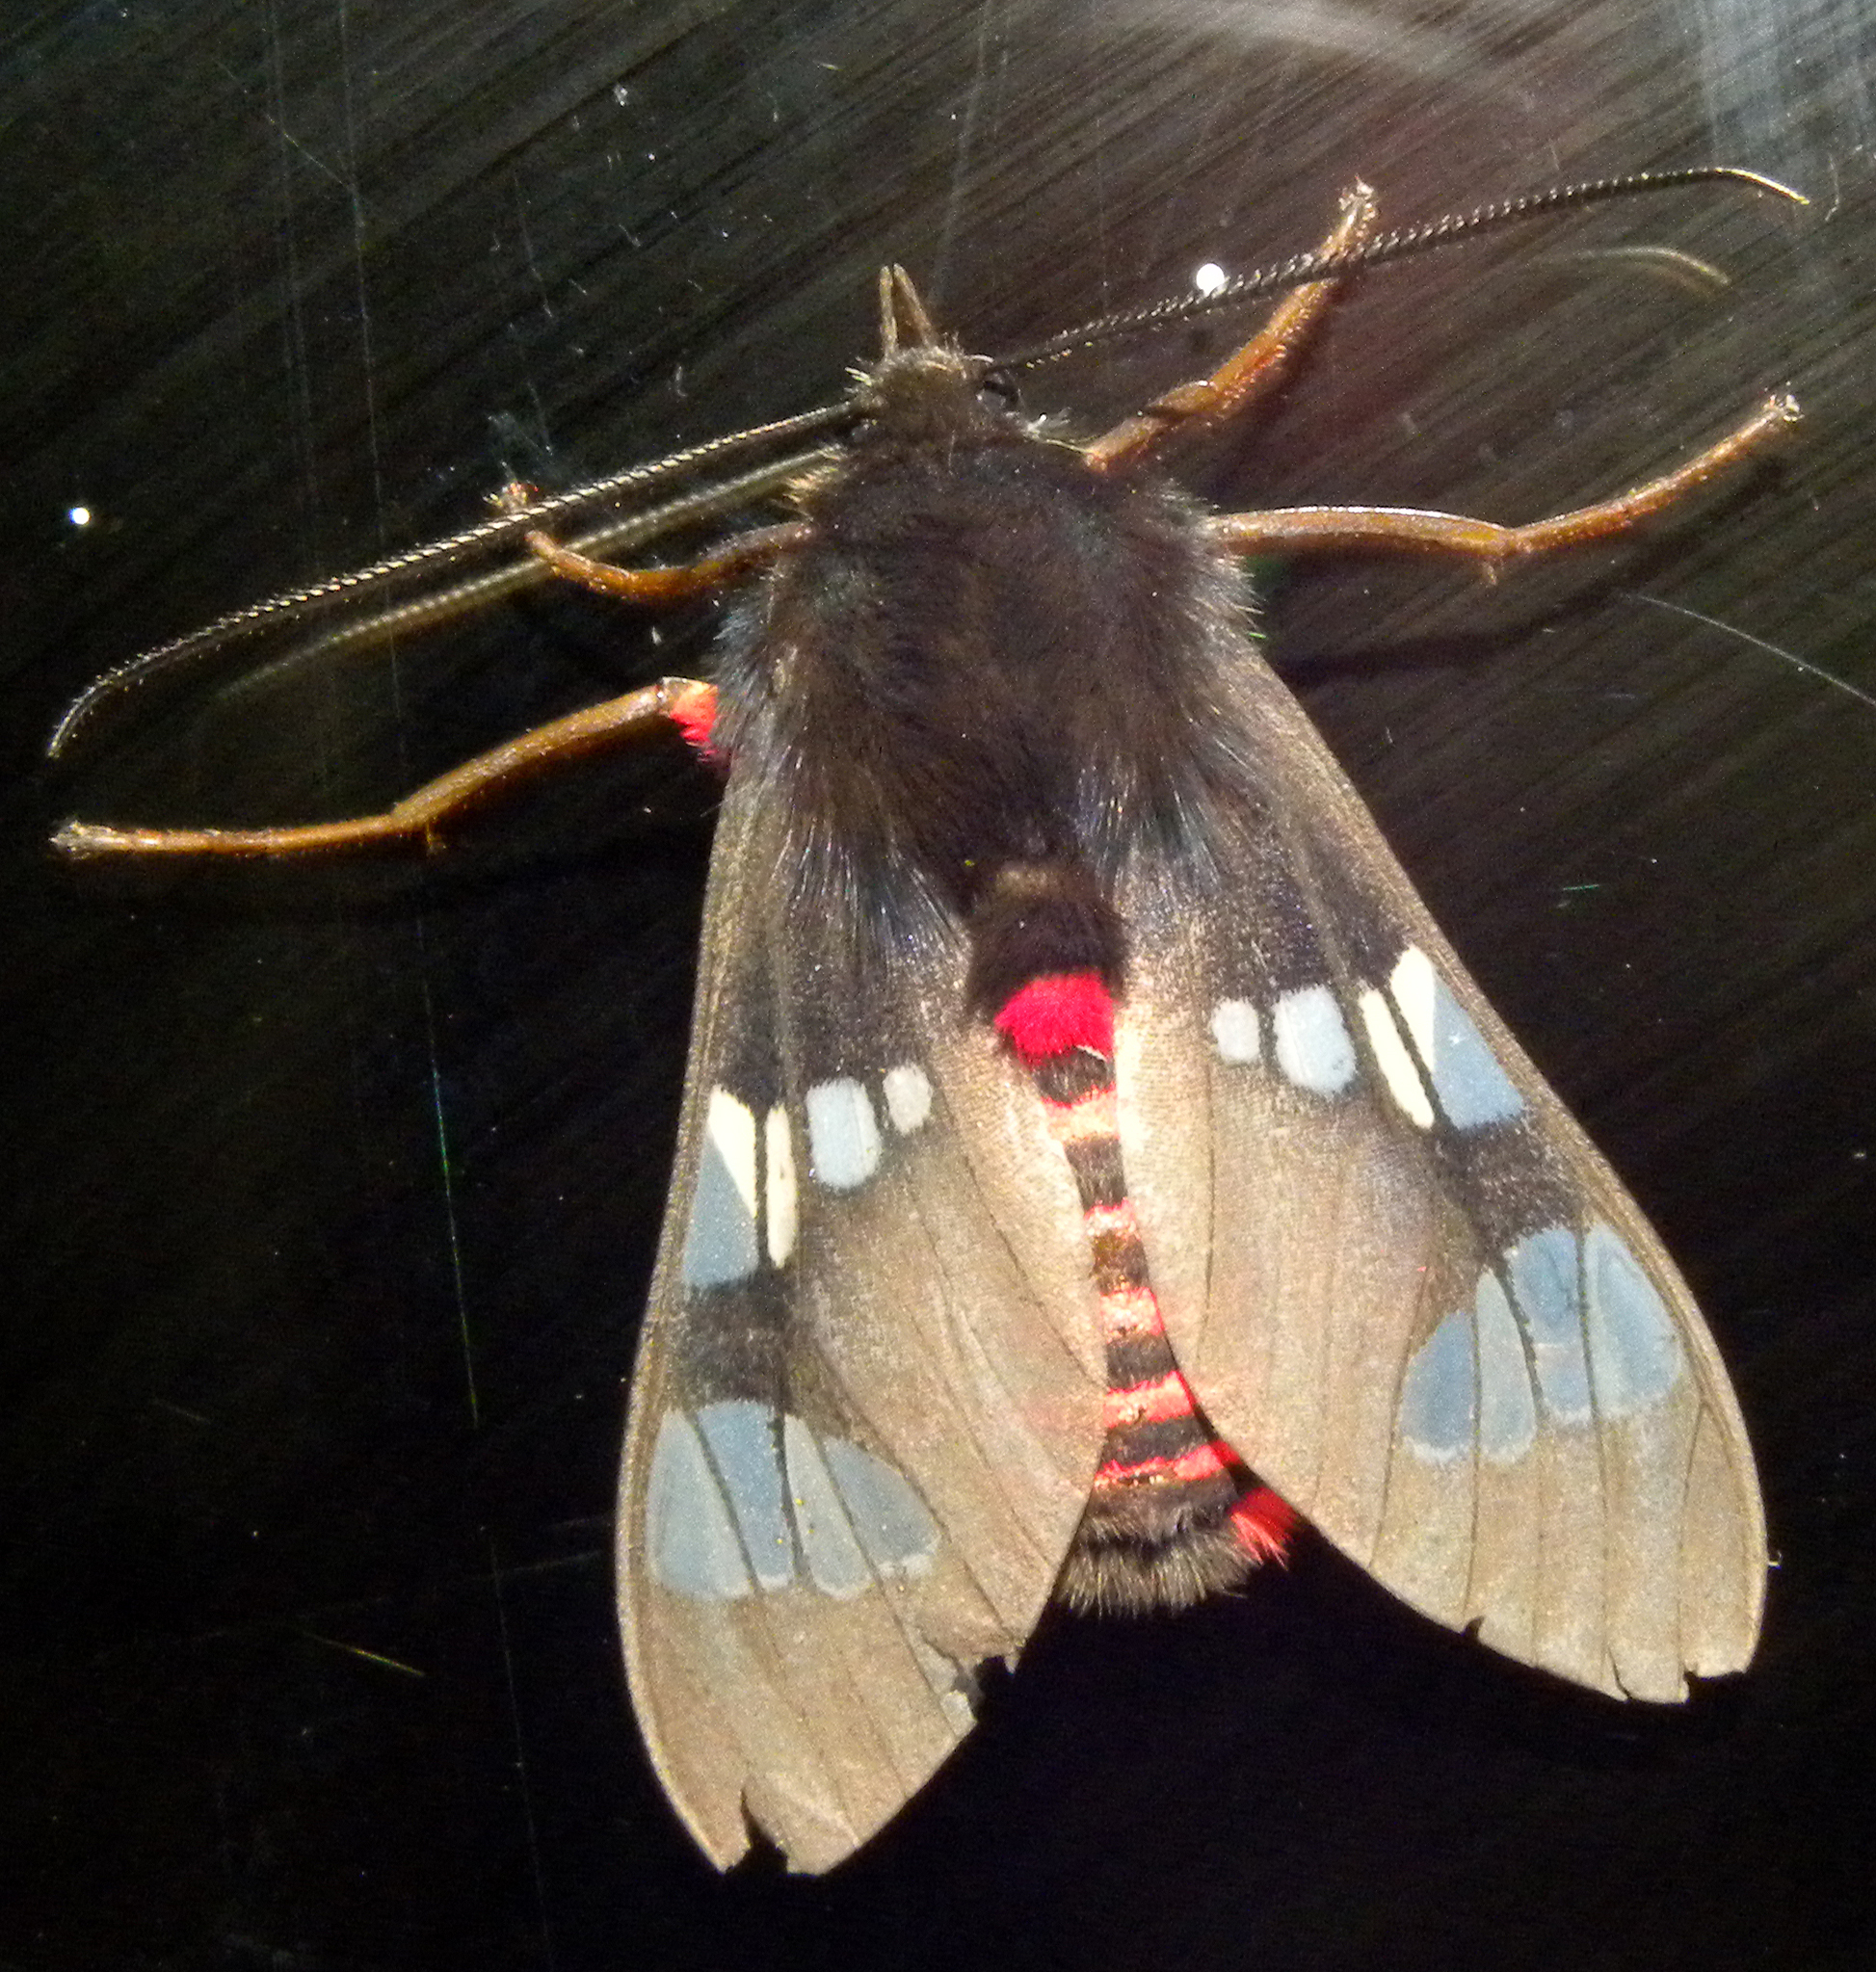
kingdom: Animalia
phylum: Arthropoda
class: Insecta
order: Lepidoptera
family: Erebidae
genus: Scelilasia
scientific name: Scelilasia erythrozonata
